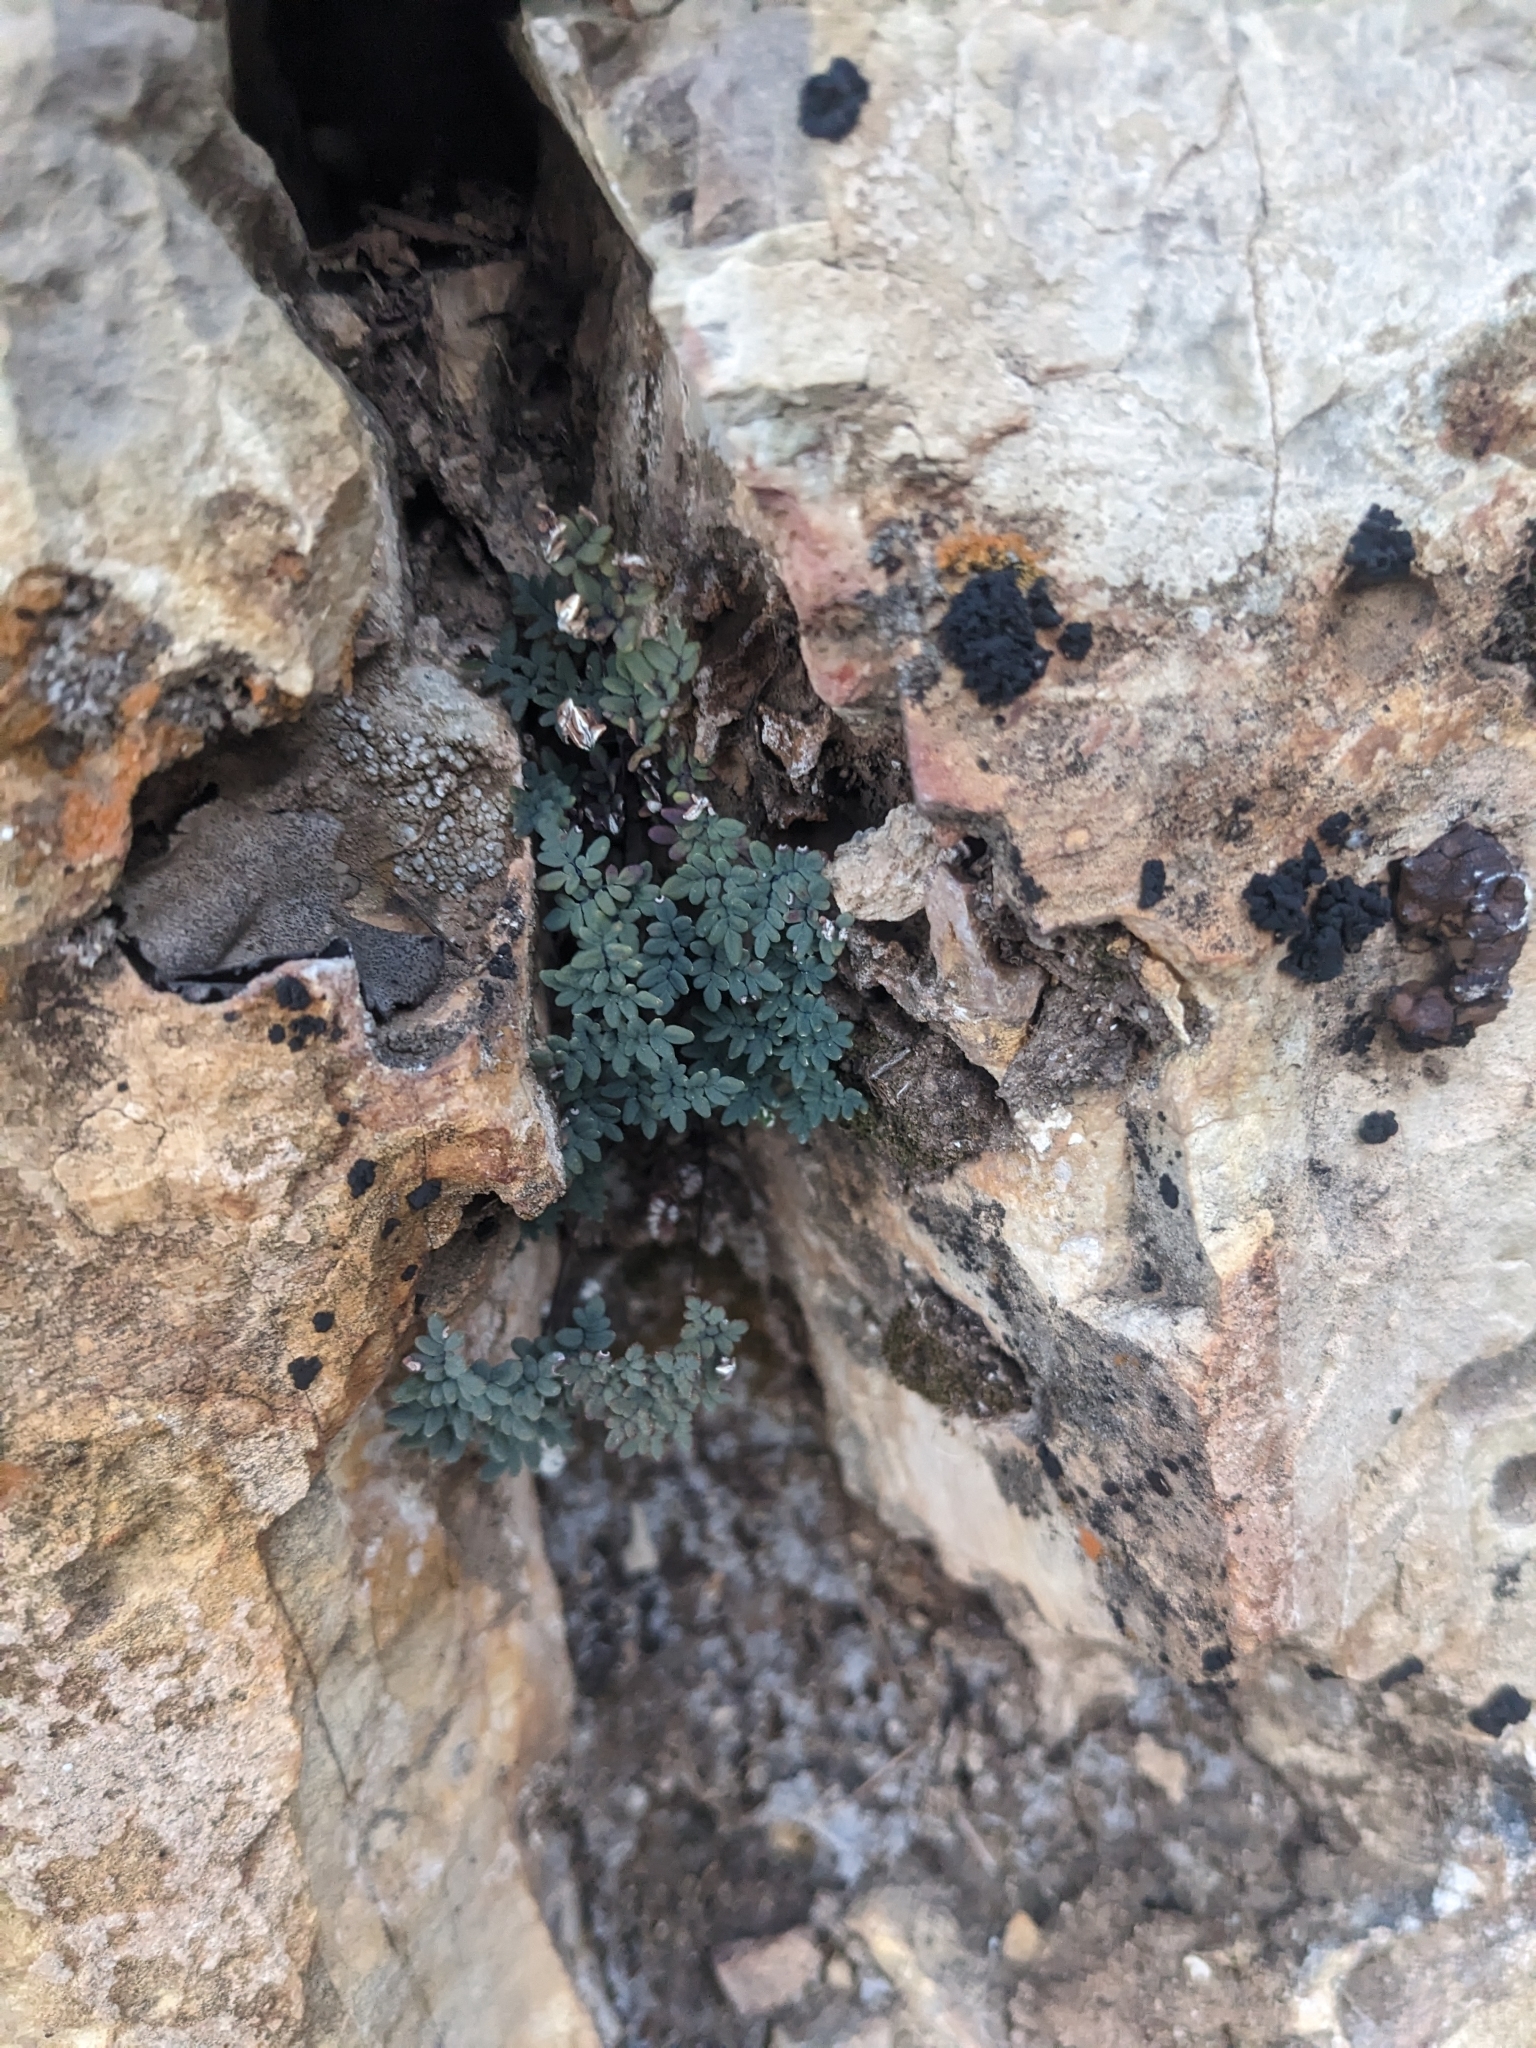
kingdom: Plantae
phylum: Tracheophyta
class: Polypodiopsida
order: Polypodiales
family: Pteridaceae
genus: Argyrochosma
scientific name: Argyrochosma limitanea
